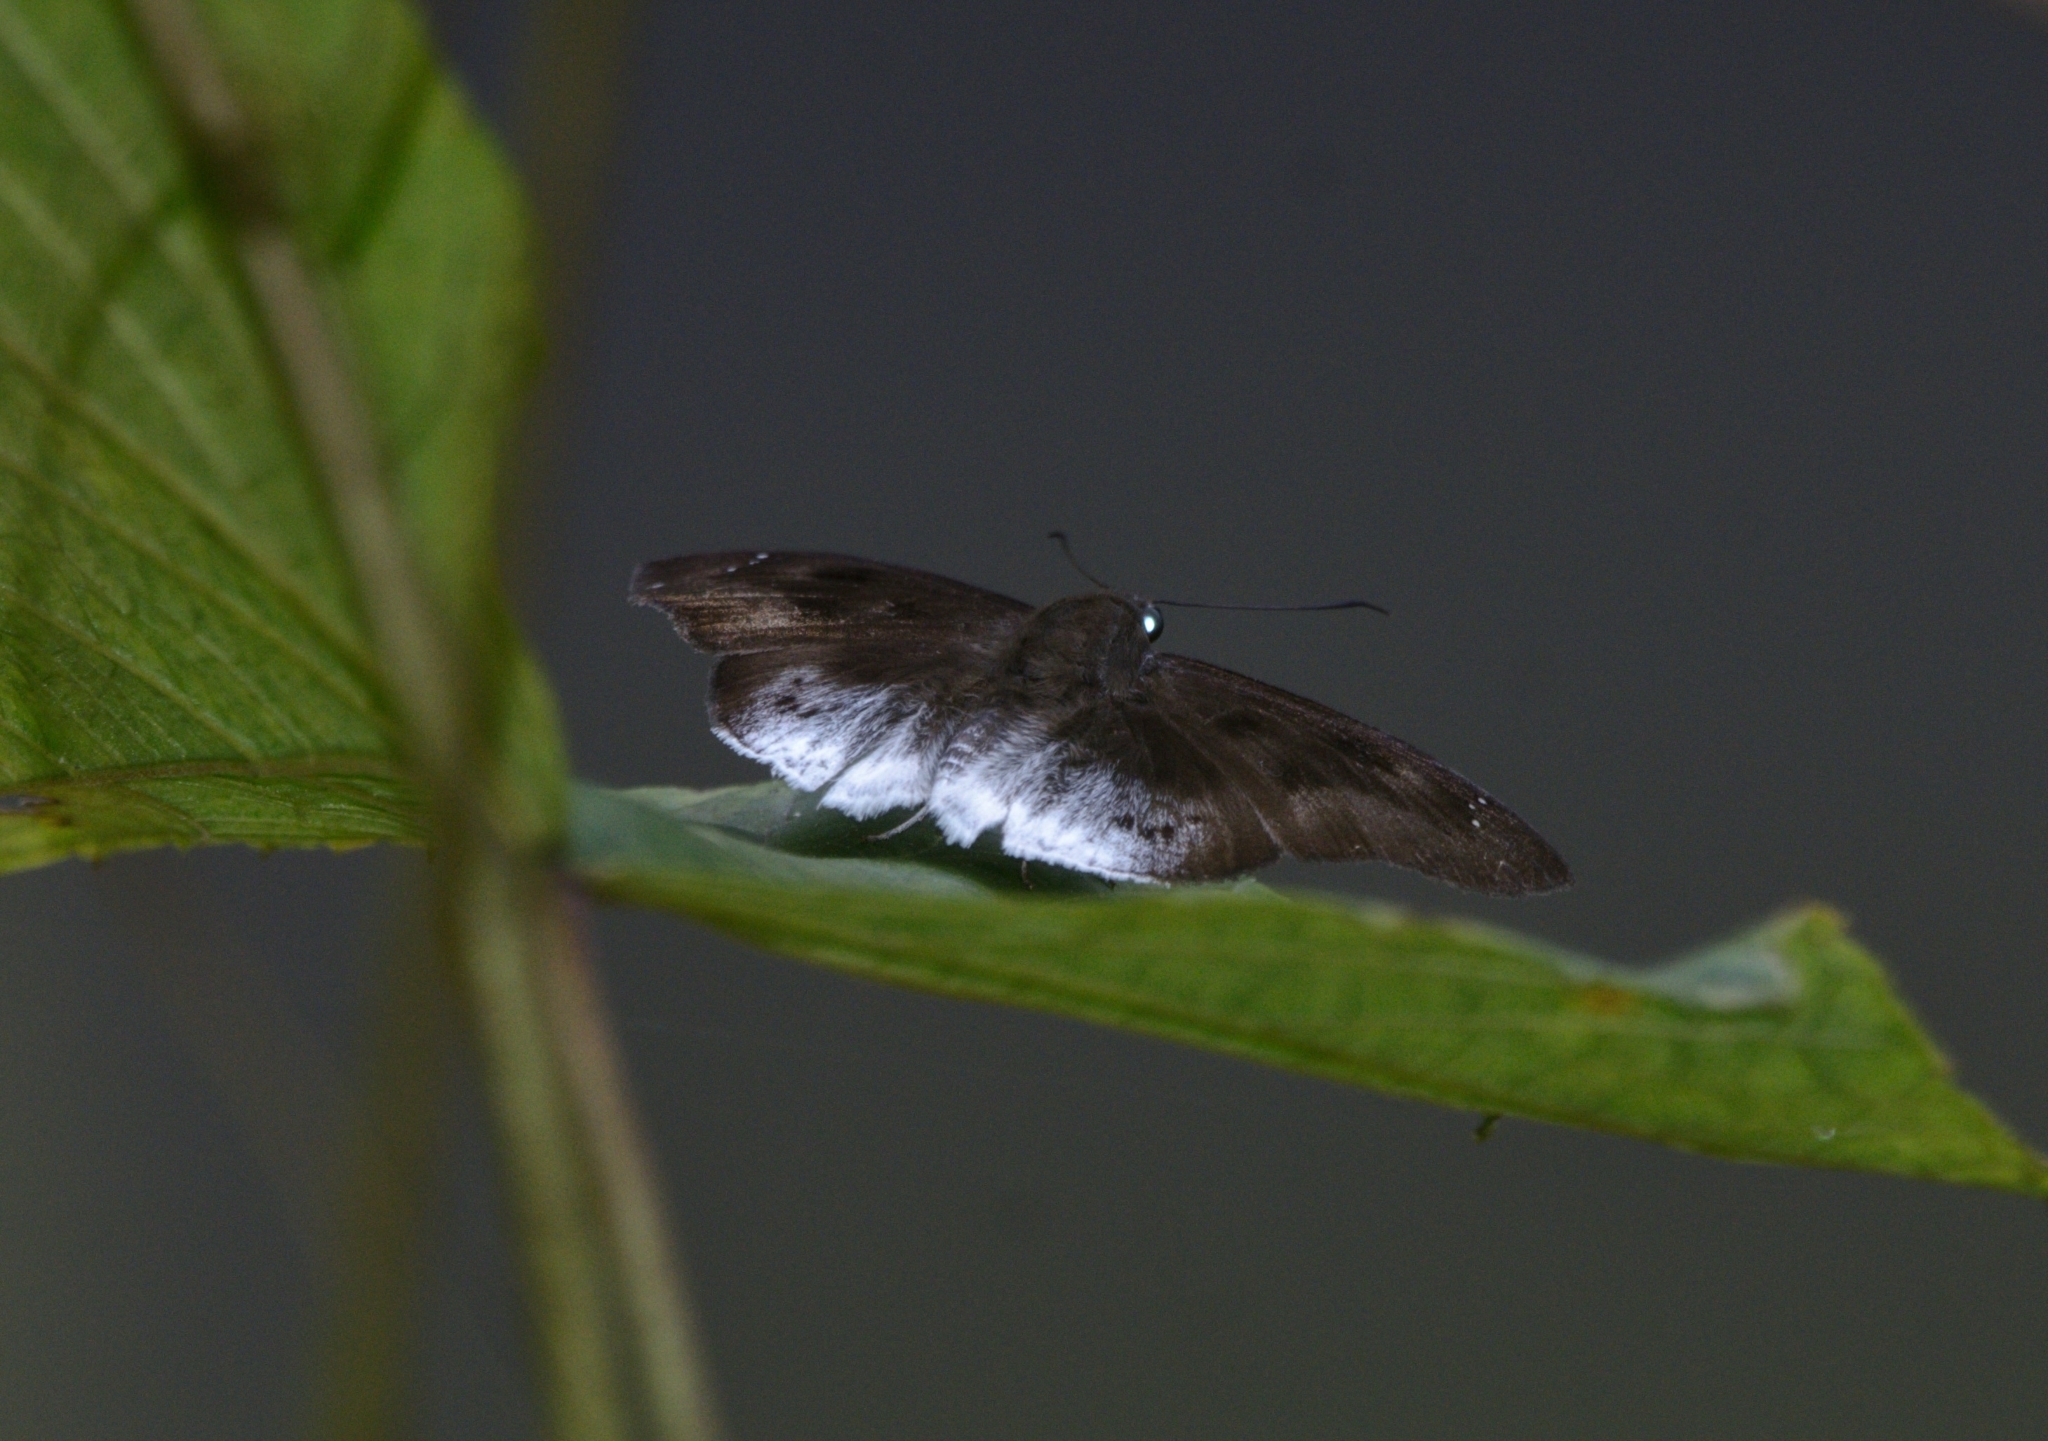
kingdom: Animalia
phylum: Arthropoda
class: Insecta
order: Lepidoptera
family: Hesperiidae
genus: Tagiades
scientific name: Tagiades gana
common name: Suffused snow flat
